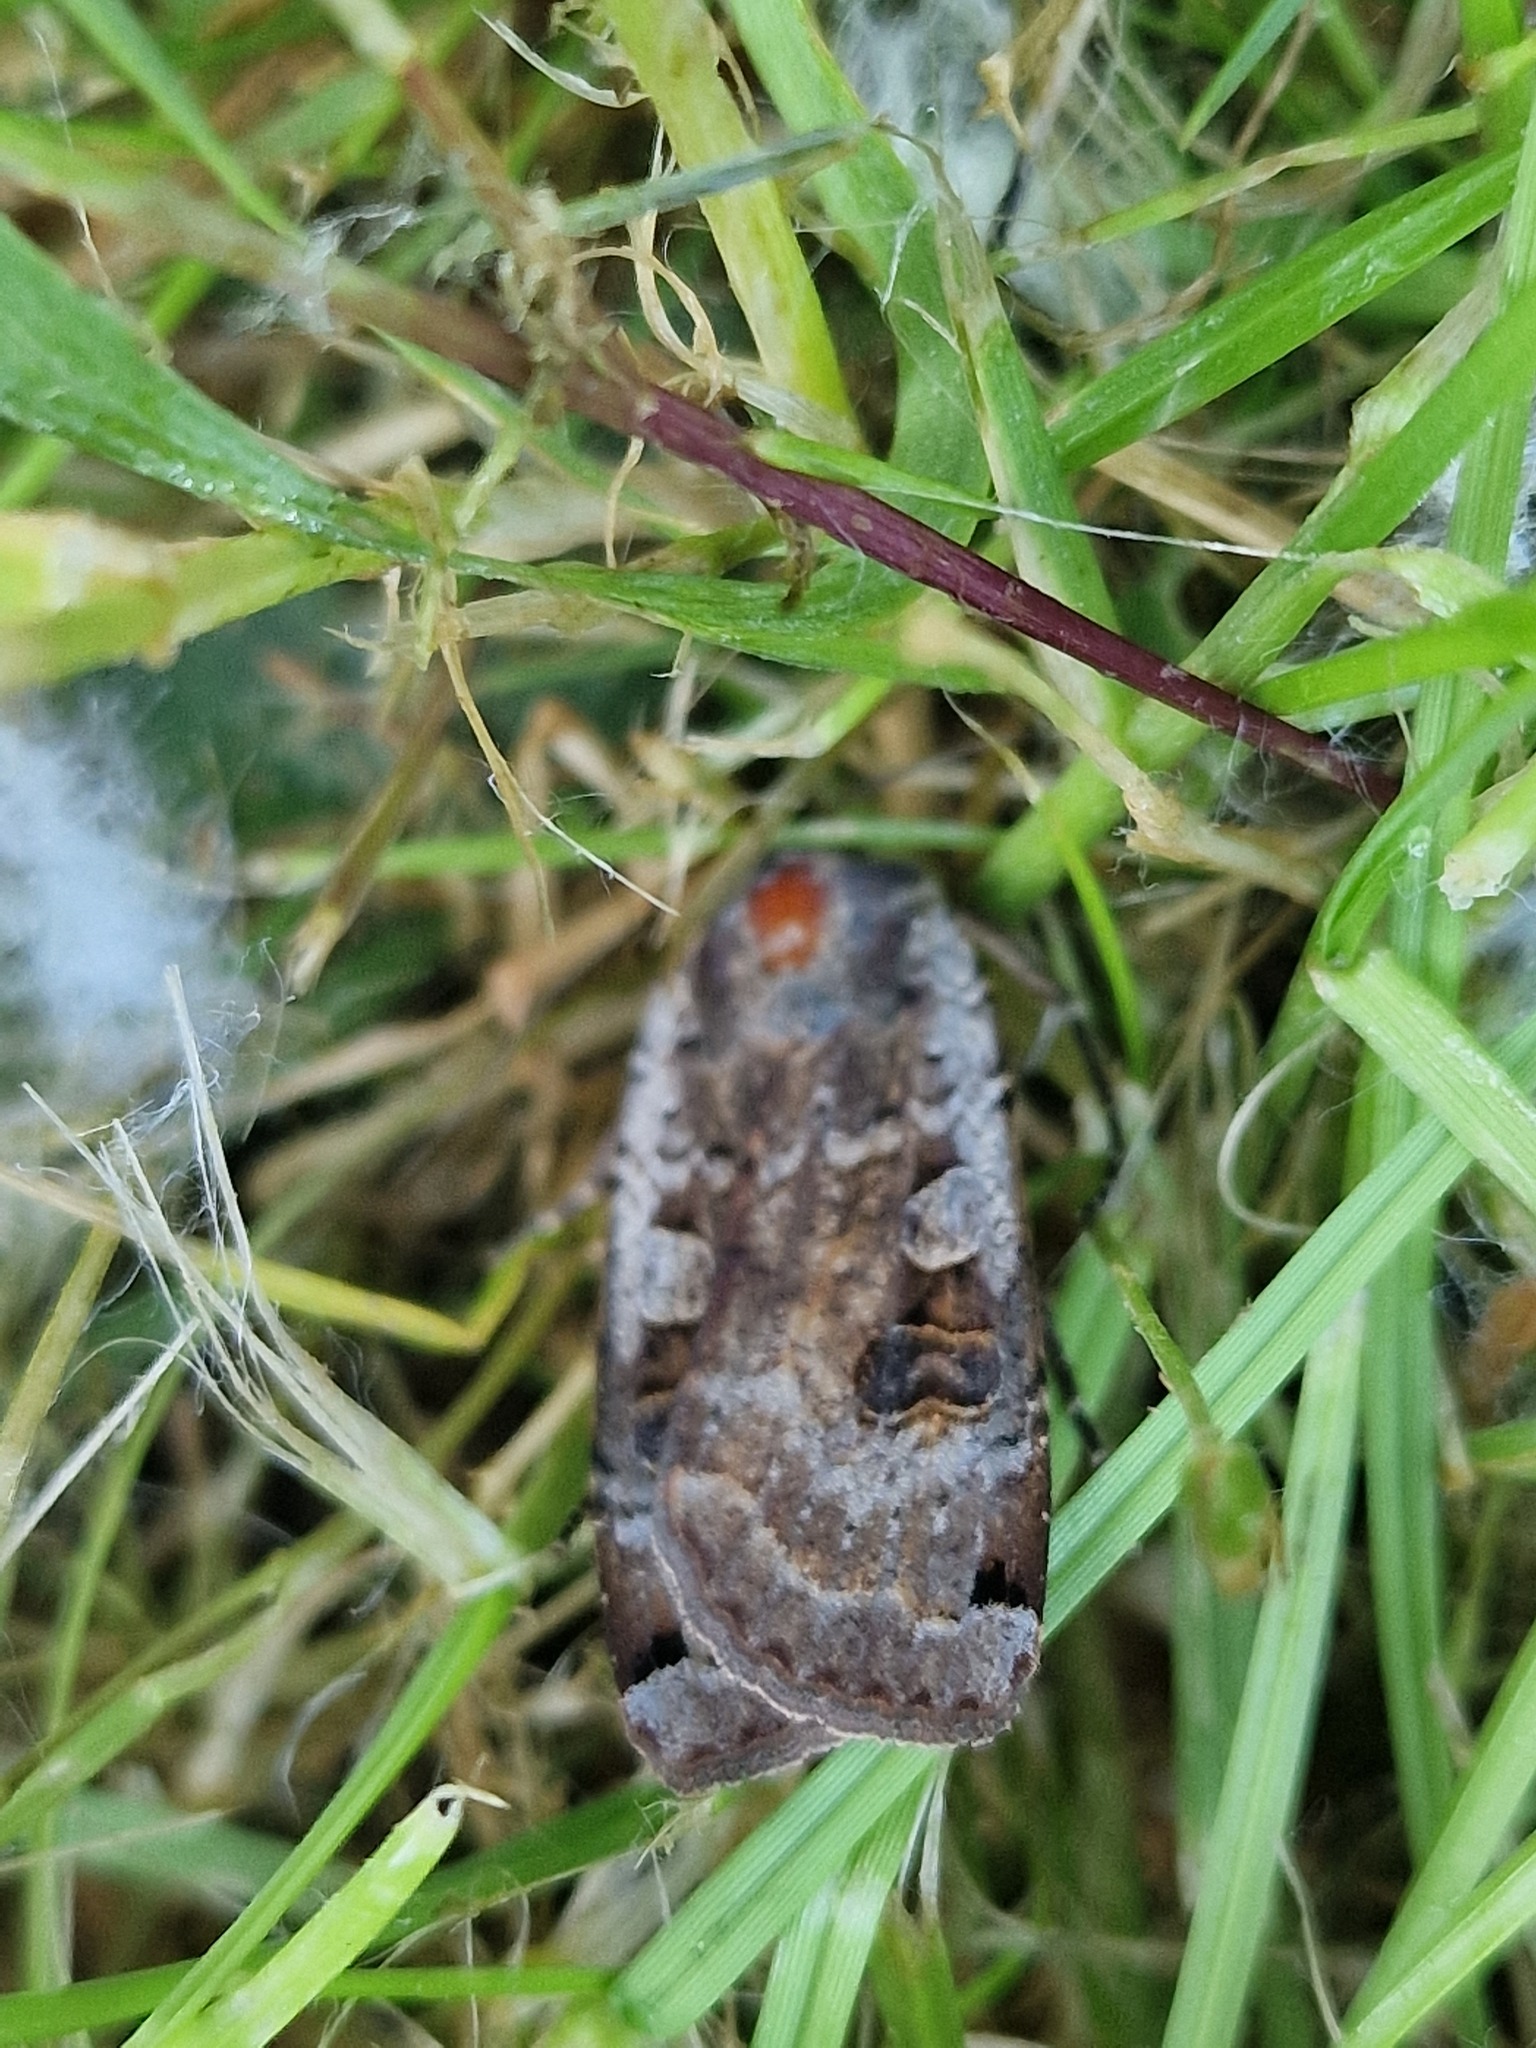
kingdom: Animalia
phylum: Arthropoda
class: Insecta
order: Lepidoptera
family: Noctuidae
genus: Noctua
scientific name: Noctua pronuba
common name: Large yellow underwing
